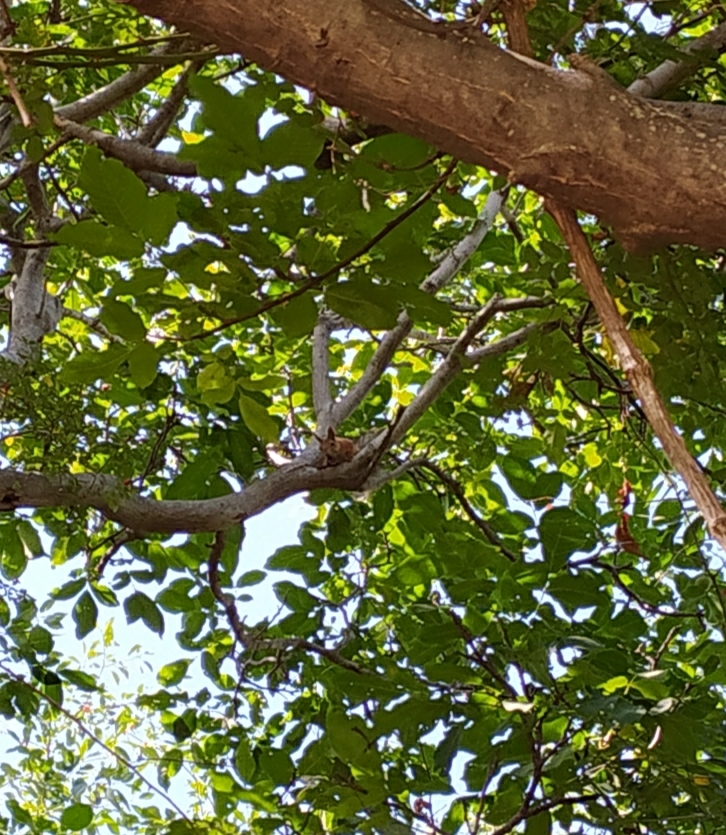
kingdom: Animalia
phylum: Chordata
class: Mammalia
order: Rodentia
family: Sciuridae
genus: Sciurus
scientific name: Sciurus vulgaris
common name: Eurasian red squirrel
